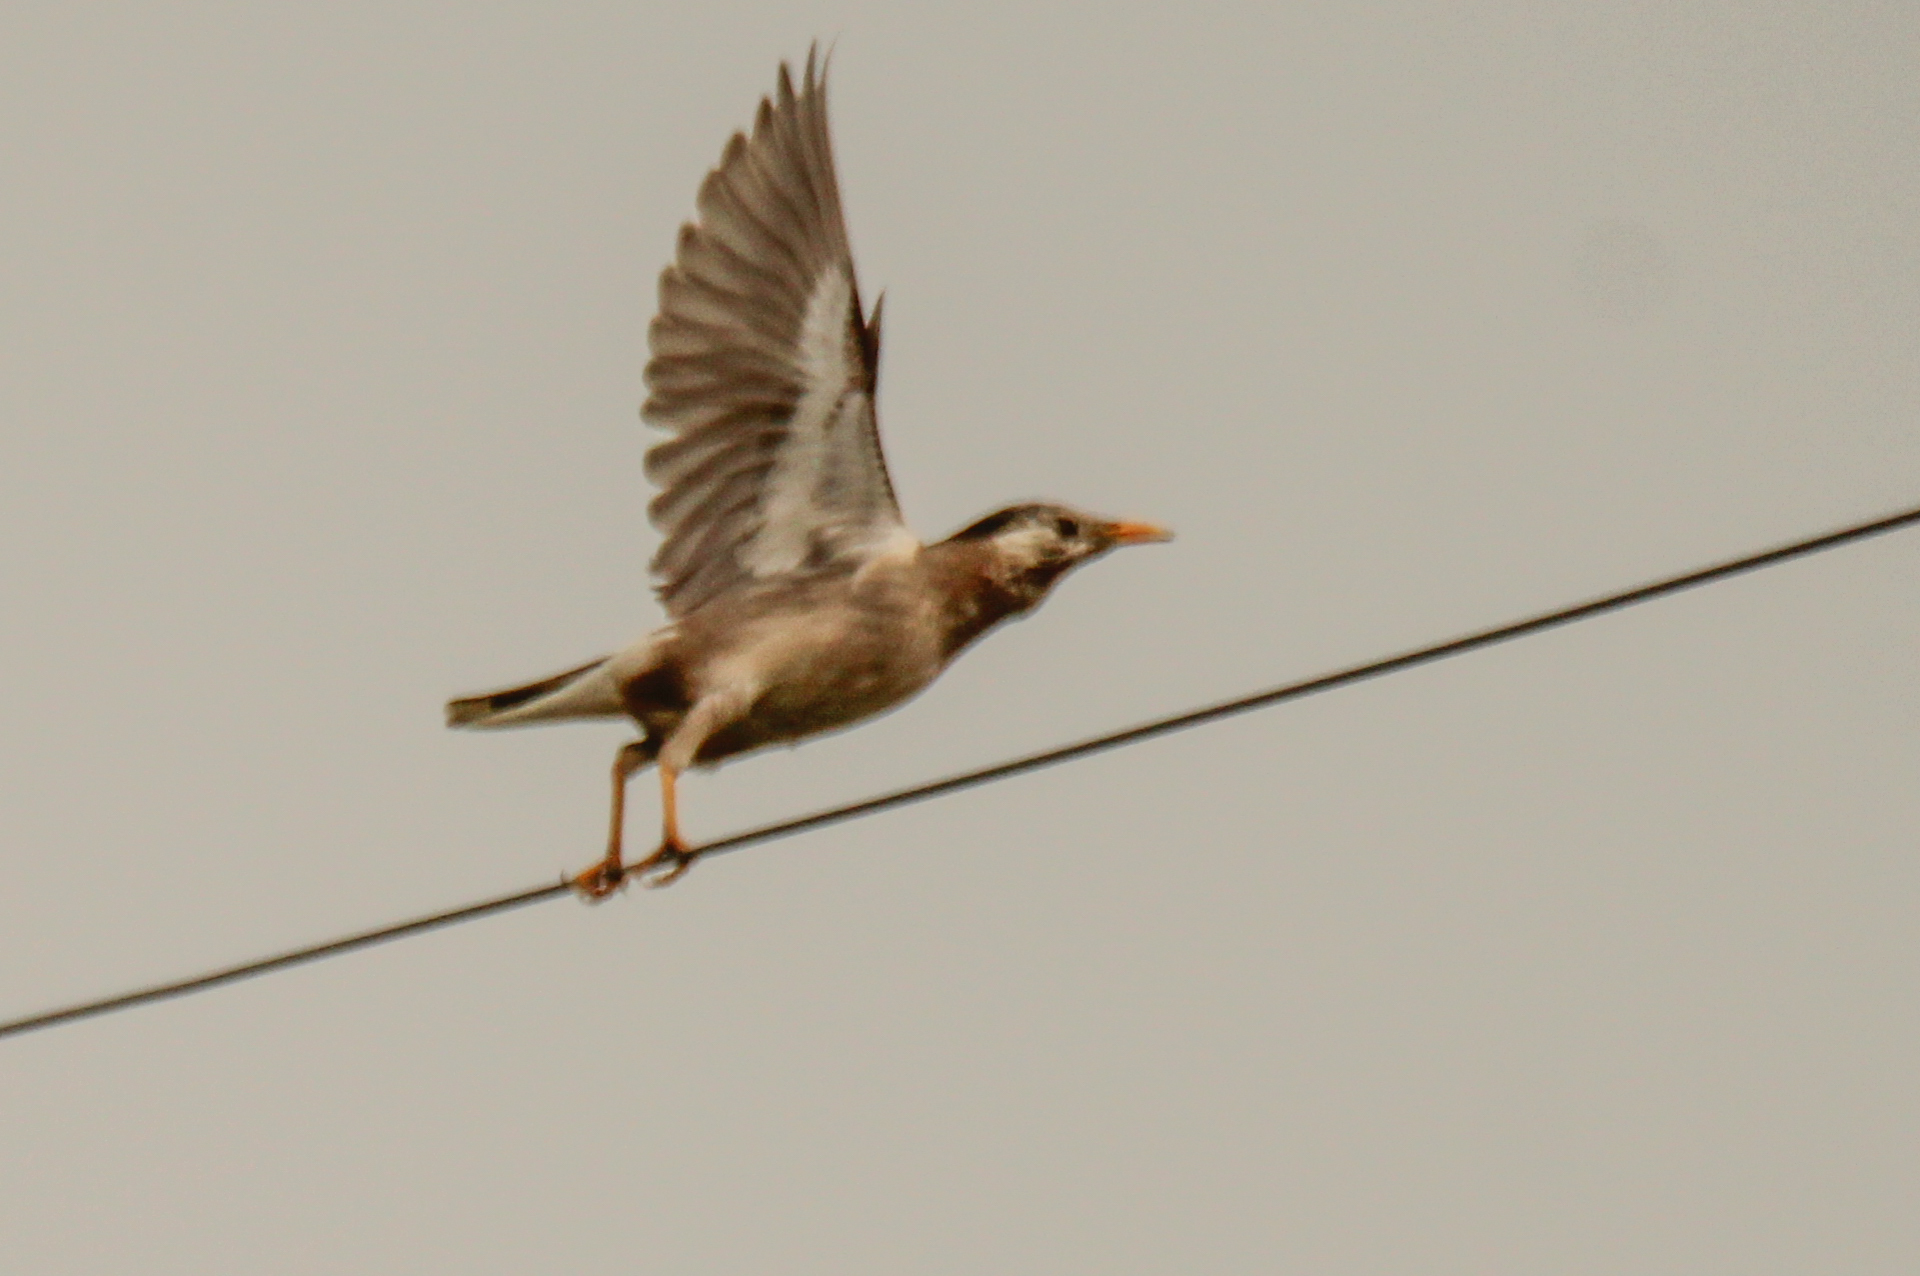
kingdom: Animalia
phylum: Chordata
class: Aves
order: Passeriformes
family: Sturnidae
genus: Spodiopsar
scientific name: Spodiopsar cineraceus
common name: White-cheeked starling
